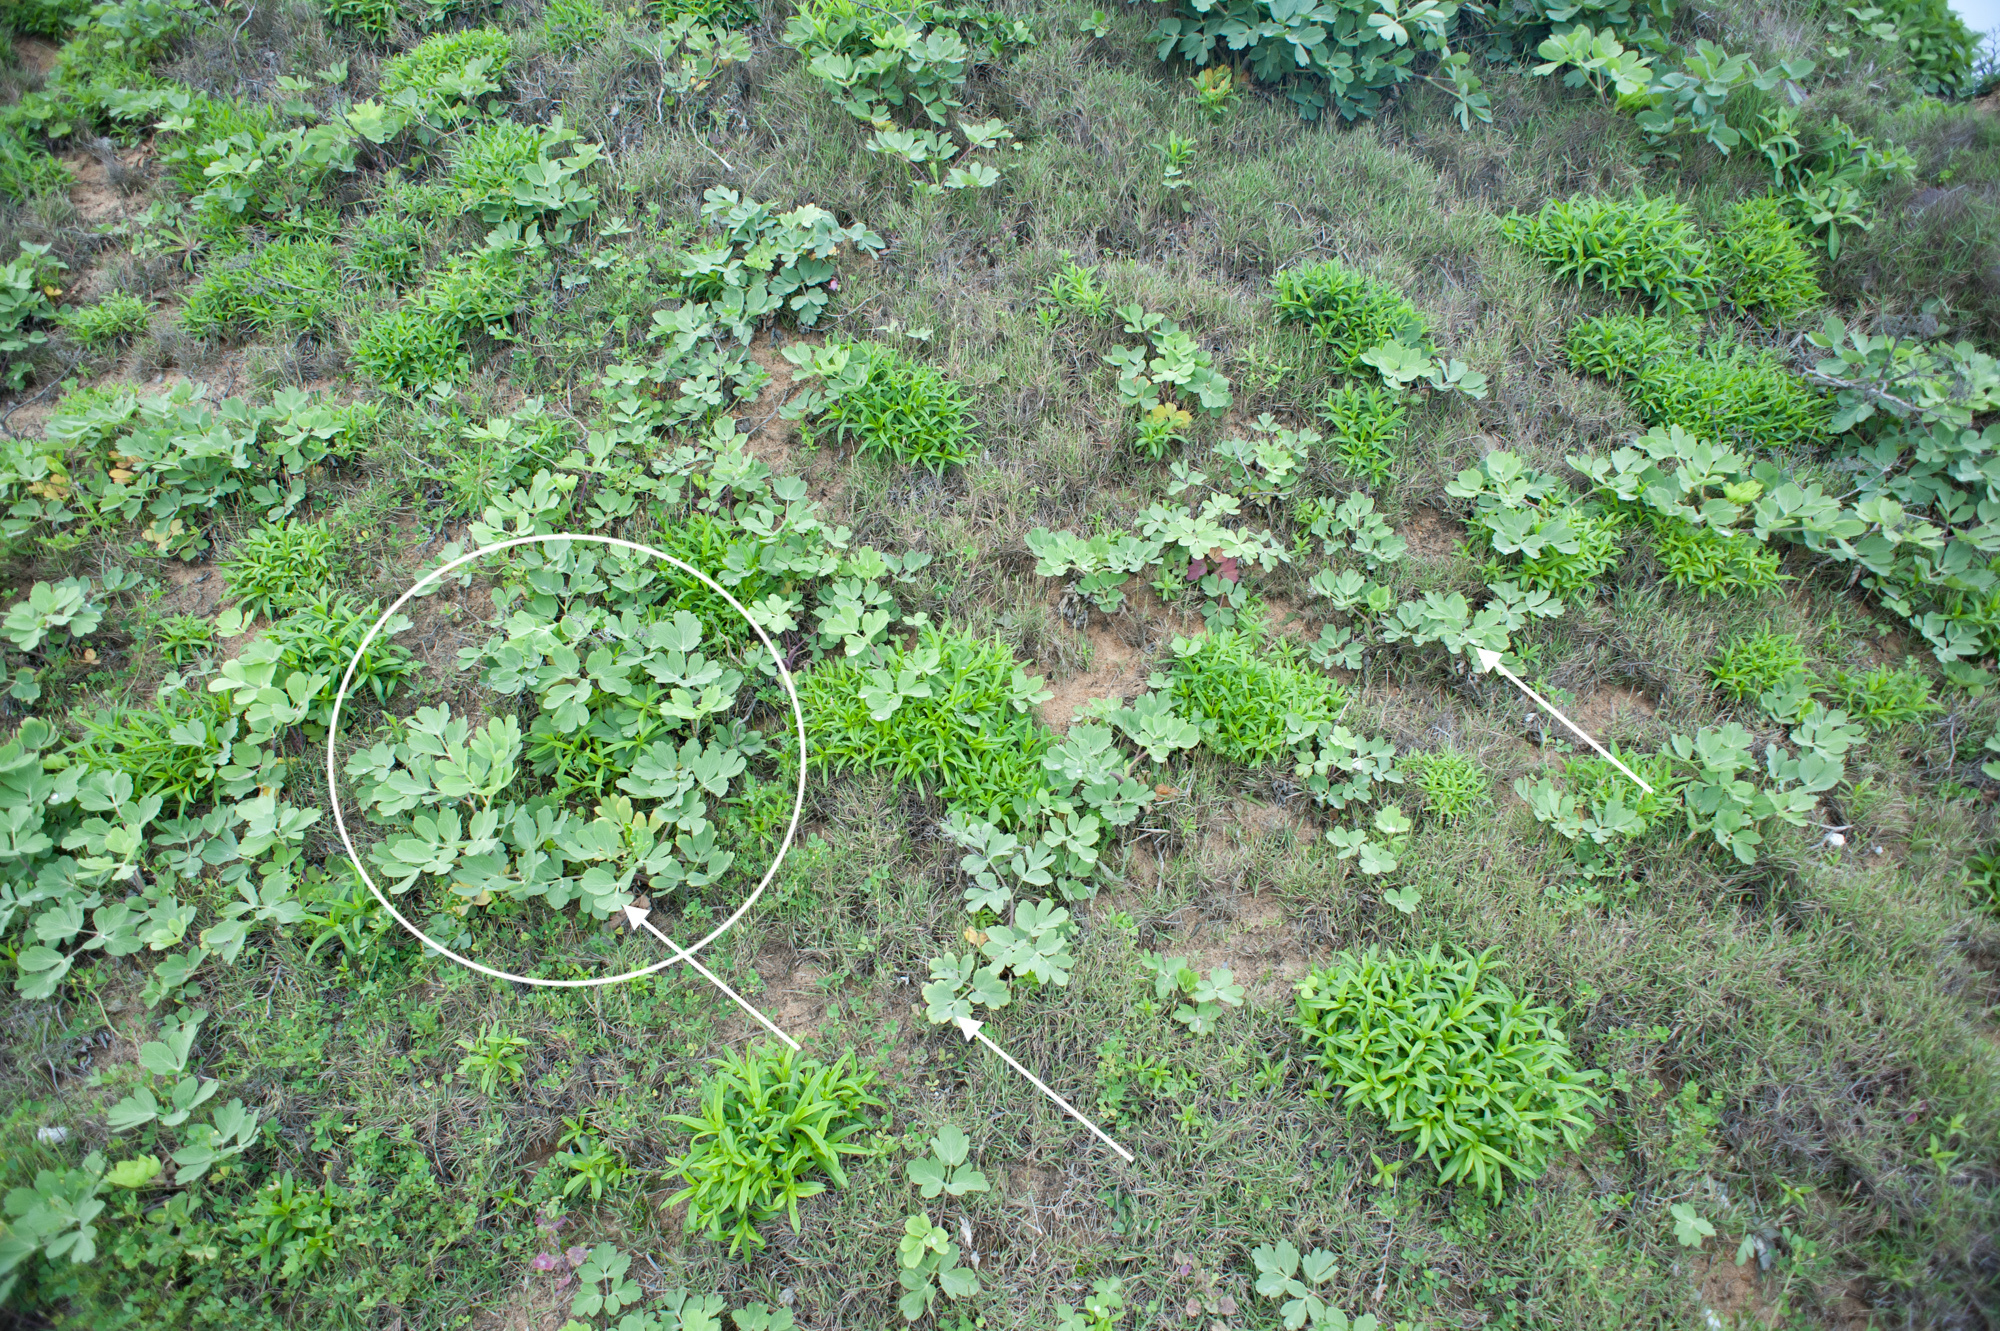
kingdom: Plantae
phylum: Tracheophyta
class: Magnoliopsida
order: Apiales
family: Apiaceae
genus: Peucedanum
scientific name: Peucedanum japonicum
